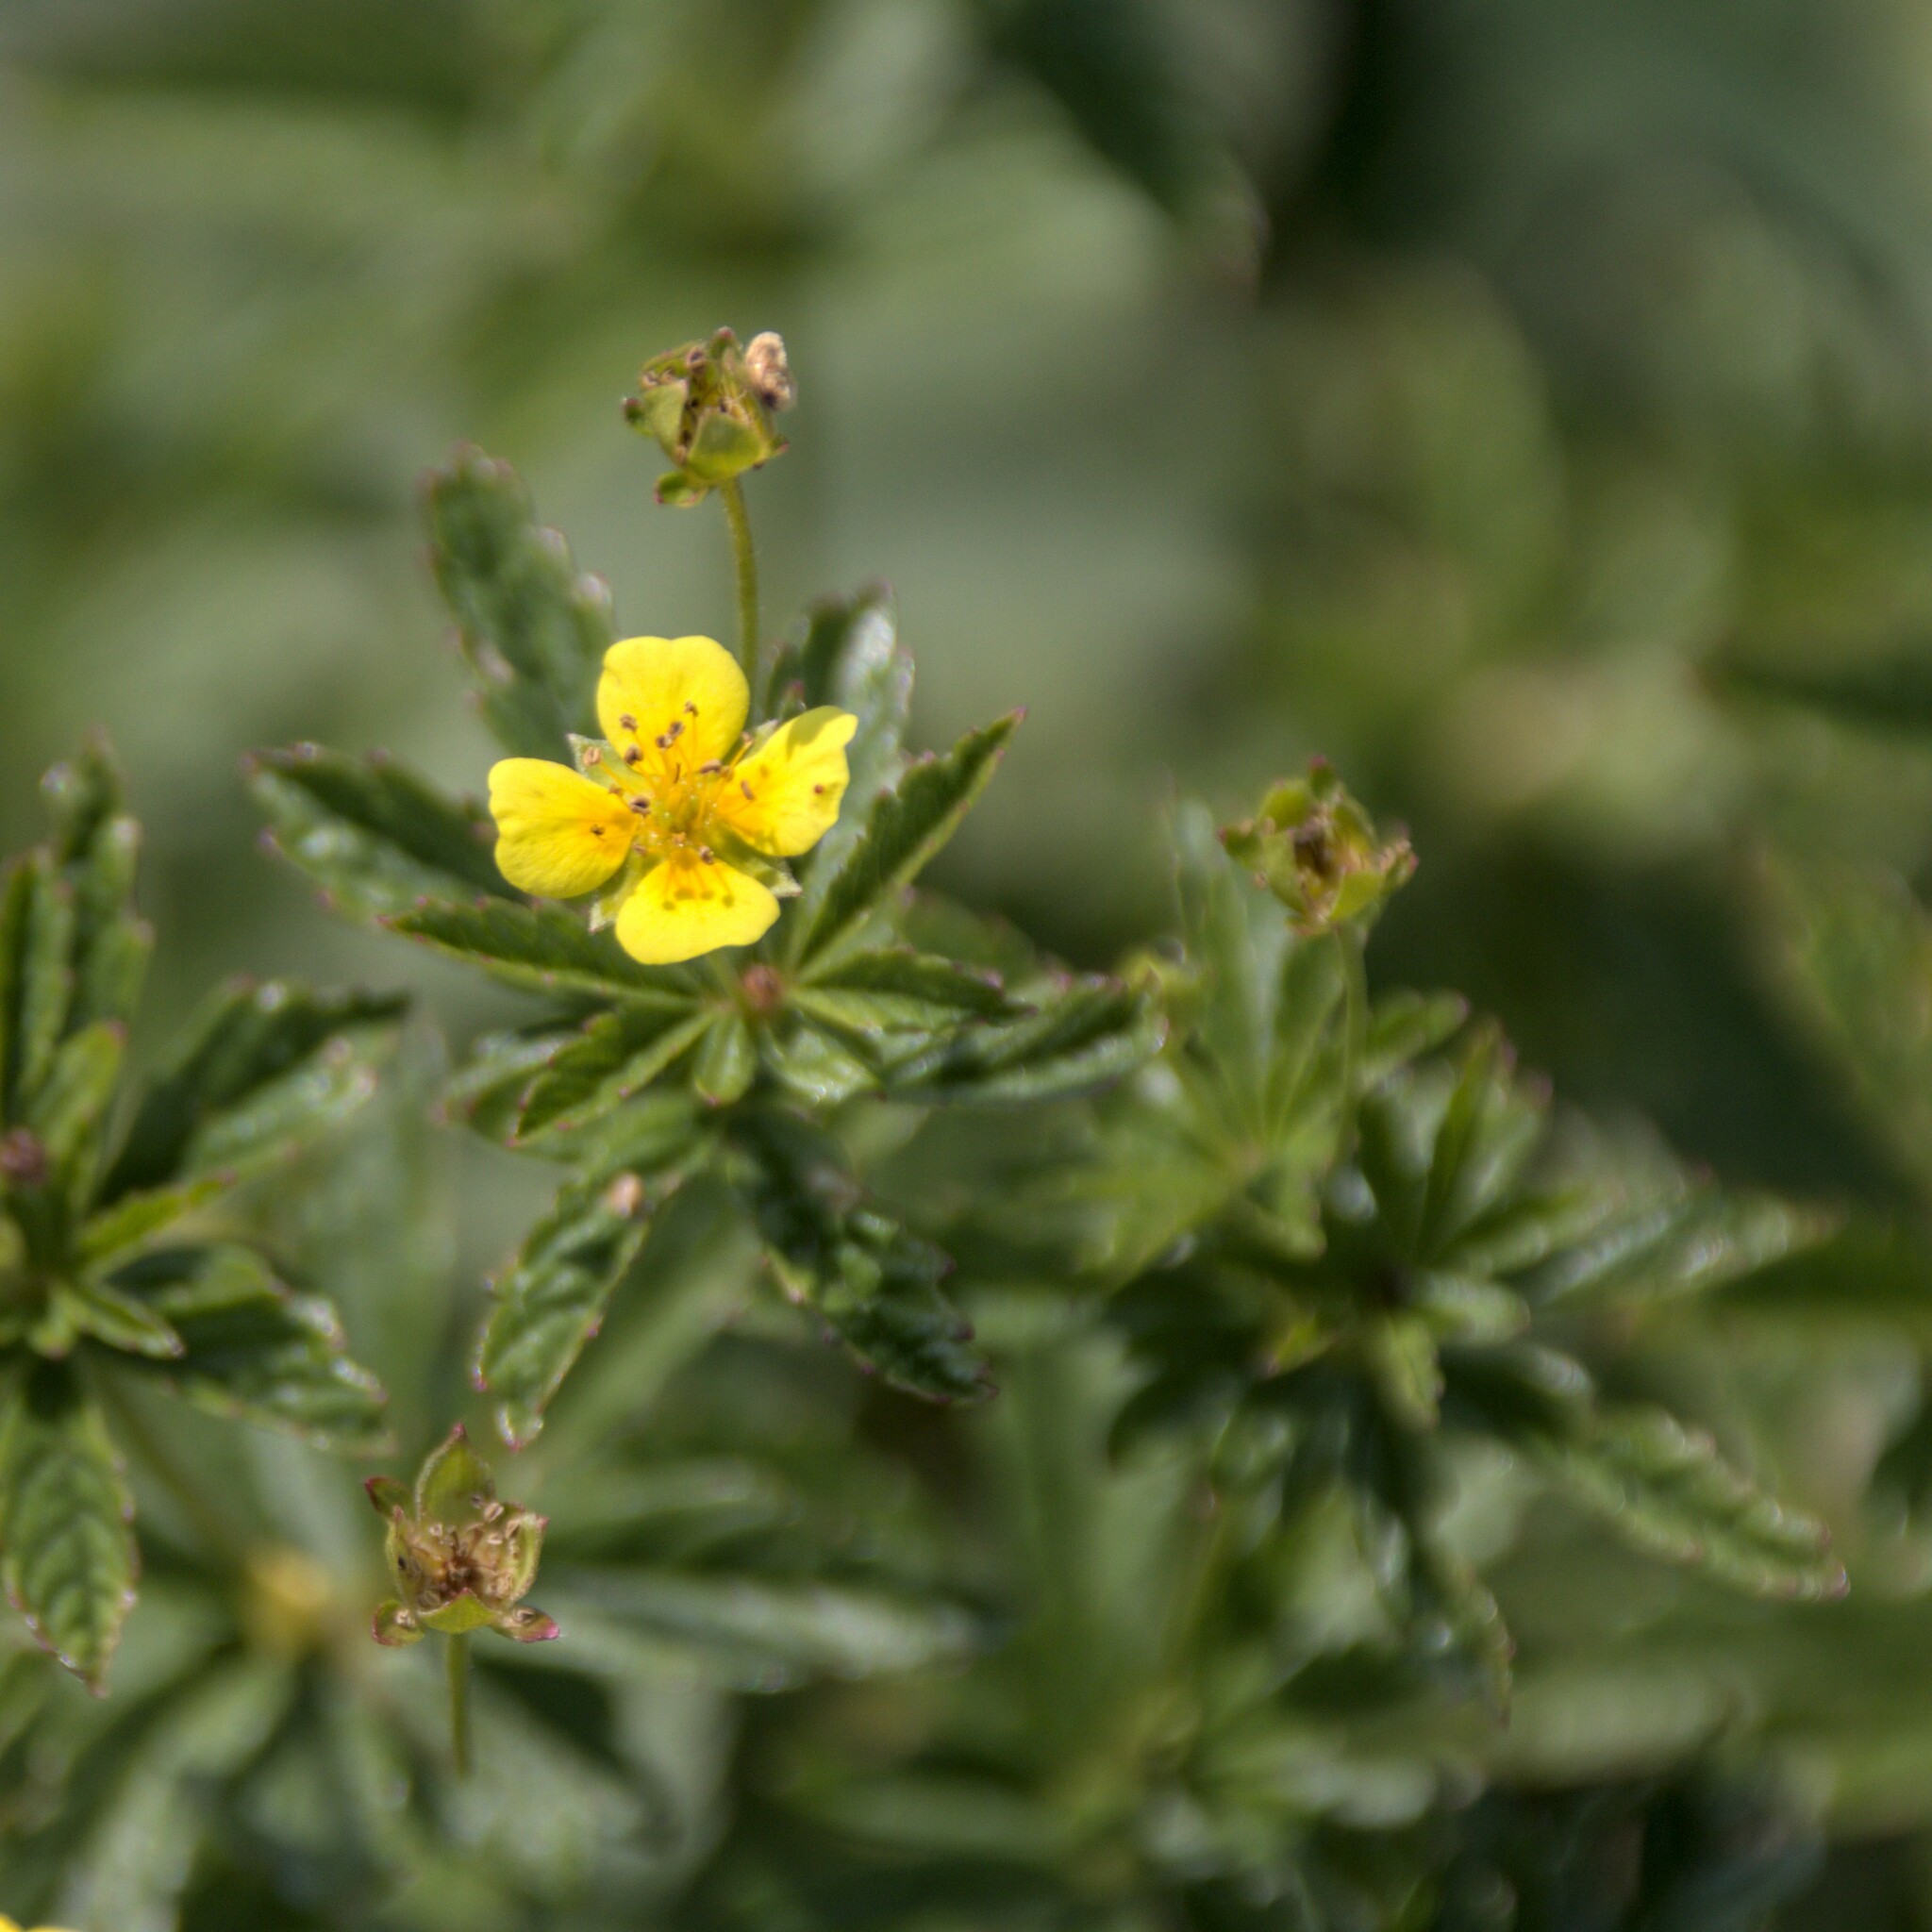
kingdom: Plantae
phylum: Tracheophyta
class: Magnoliopsida
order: Rosales
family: Rosaceae
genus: Potentilla
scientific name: Potentilla erecta
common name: Tormentil
